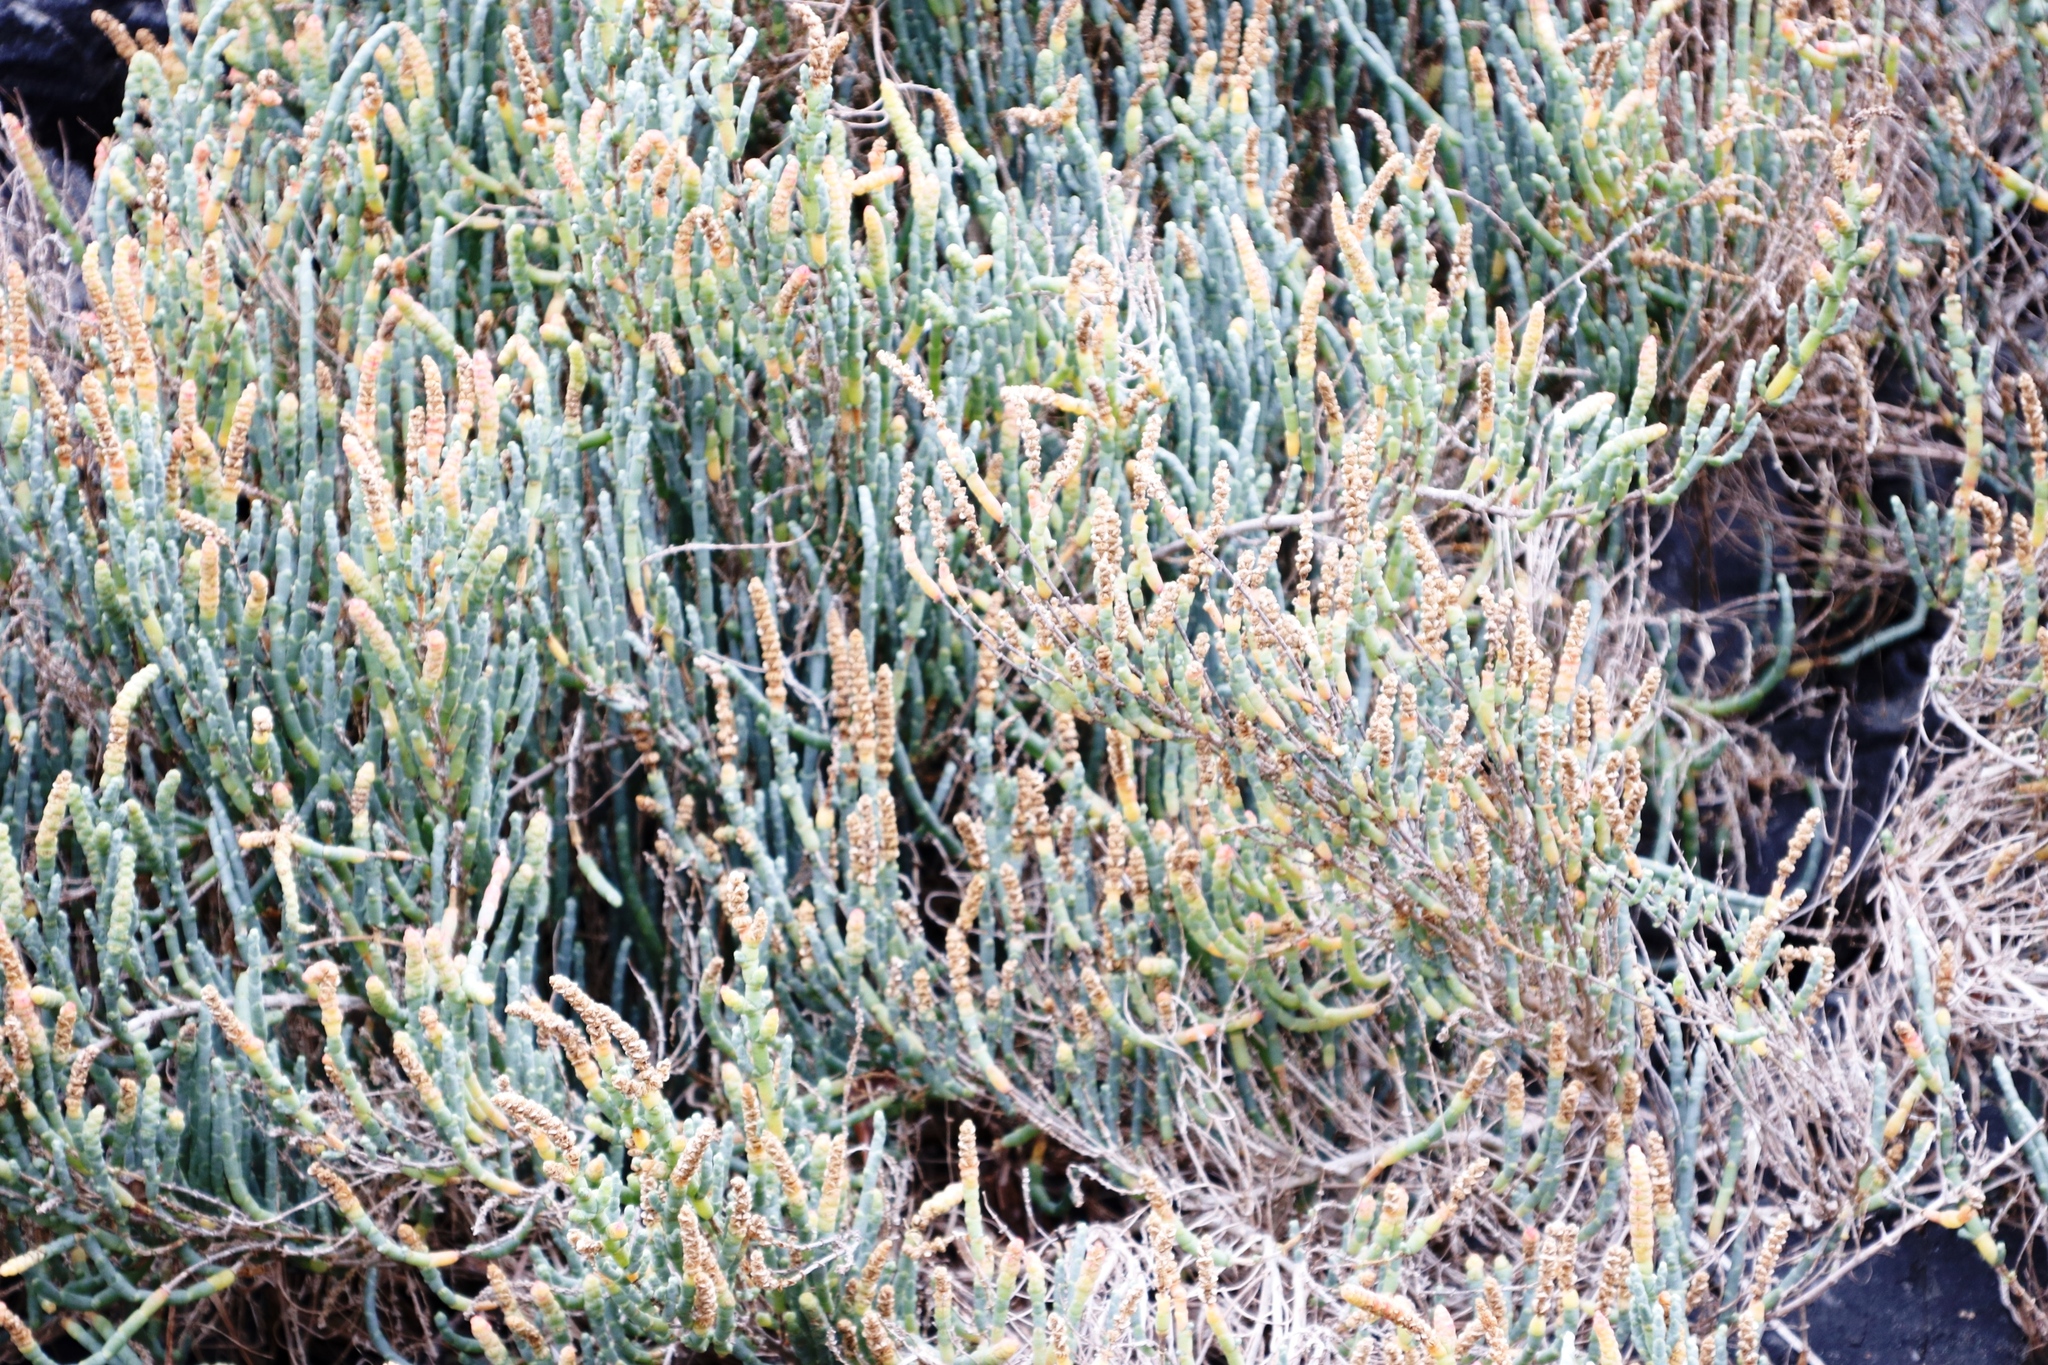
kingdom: Plantae
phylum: Tracheophyta
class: Magnoliopsida
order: Caryophyllales
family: Amaranthaceae
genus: Salicornia
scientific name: Salicornia littorea
